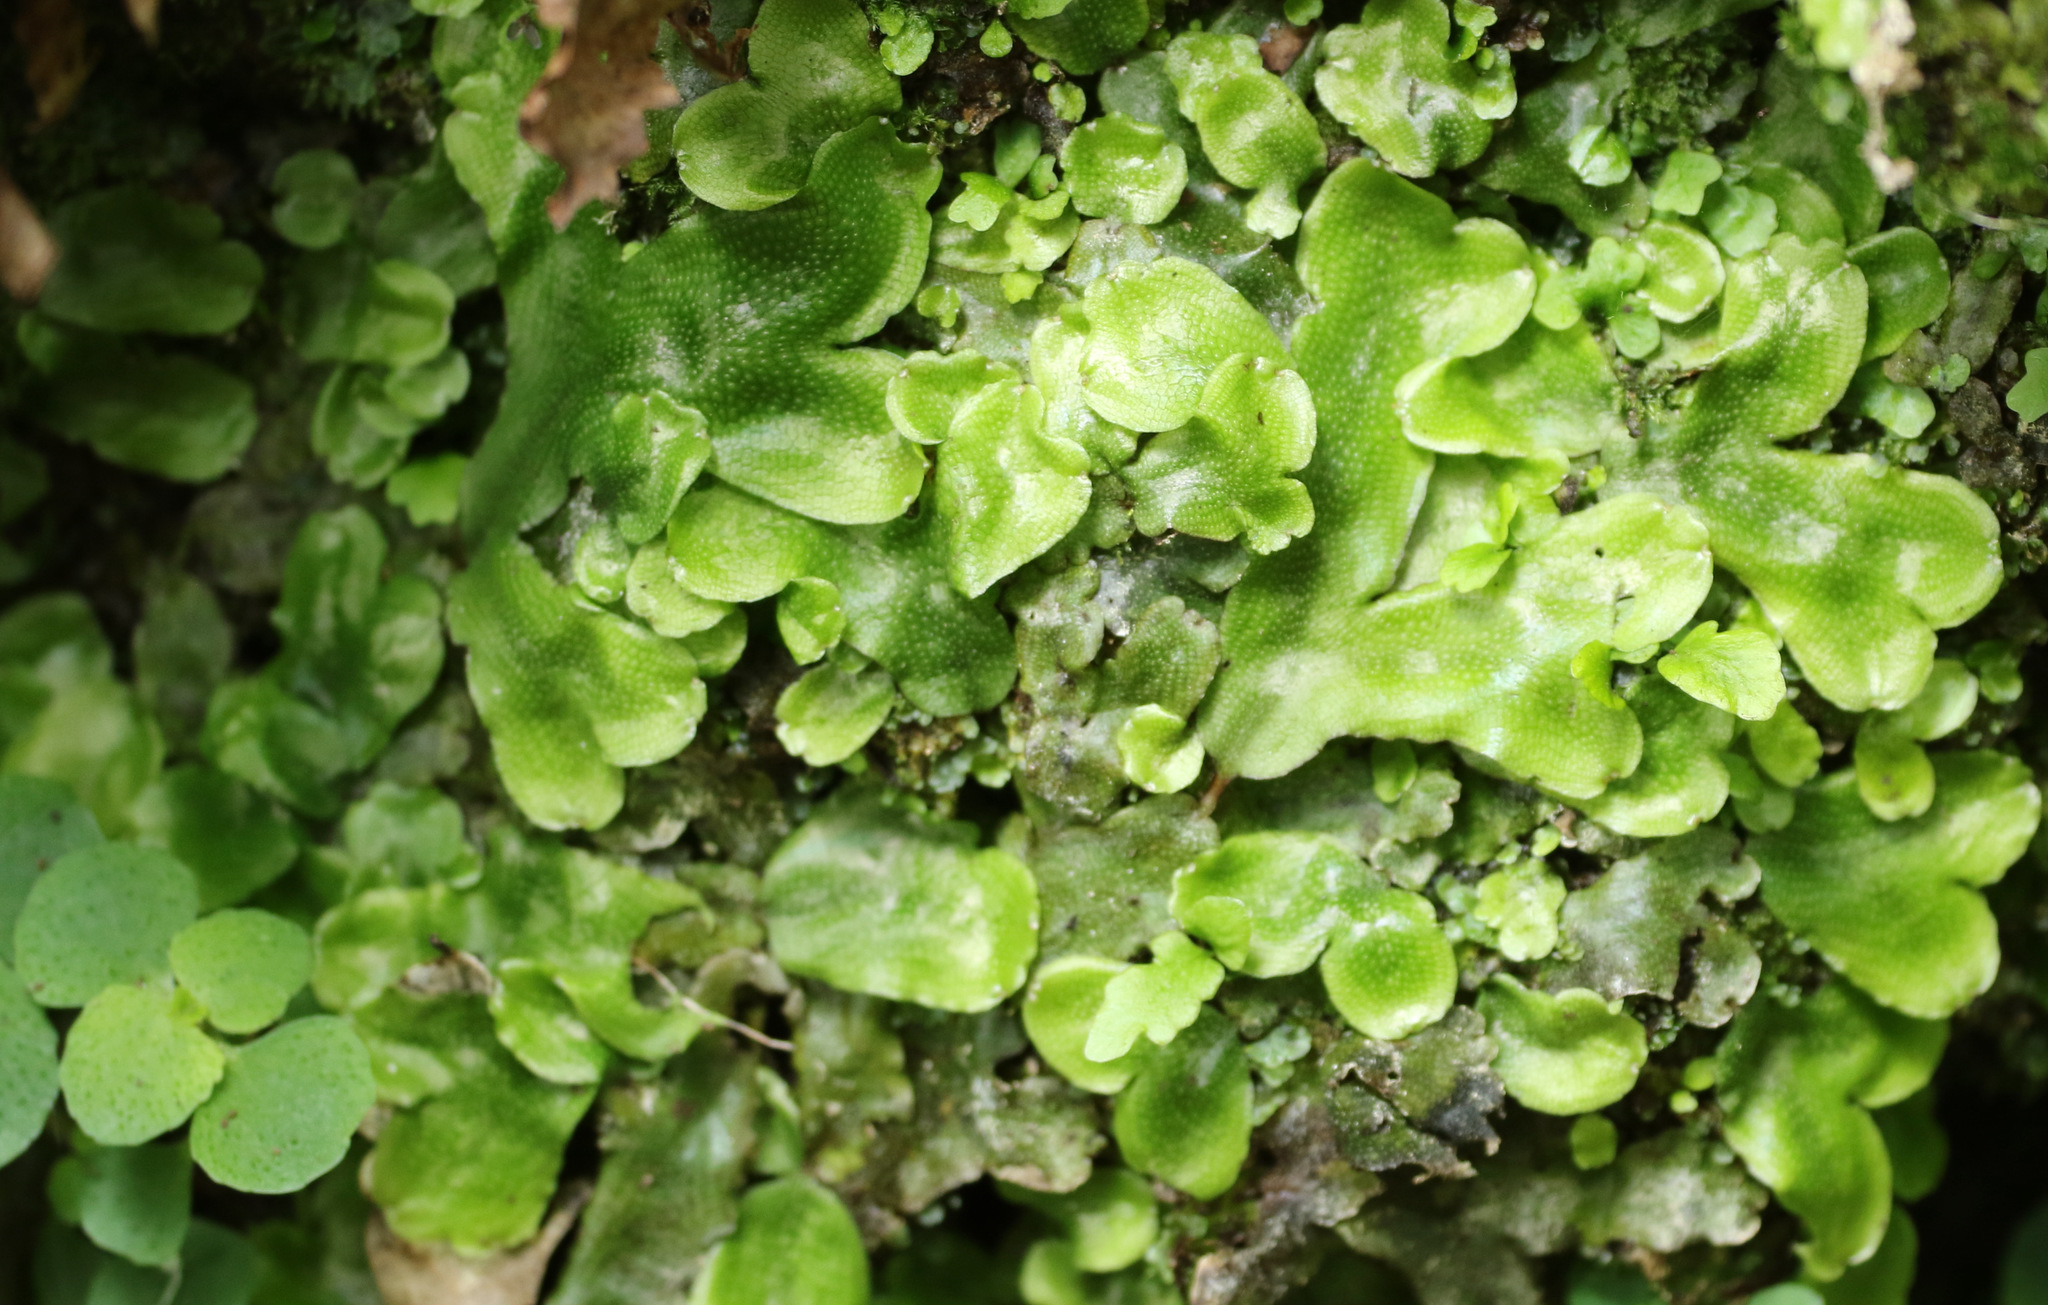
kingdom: Plantae
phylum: Marchantiophyta
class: Marchantiopsida
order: Marchantiales
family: Conocephalaceae
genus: Conocephalum
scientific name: Conocephalum conicum
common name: Great scented liverwort
